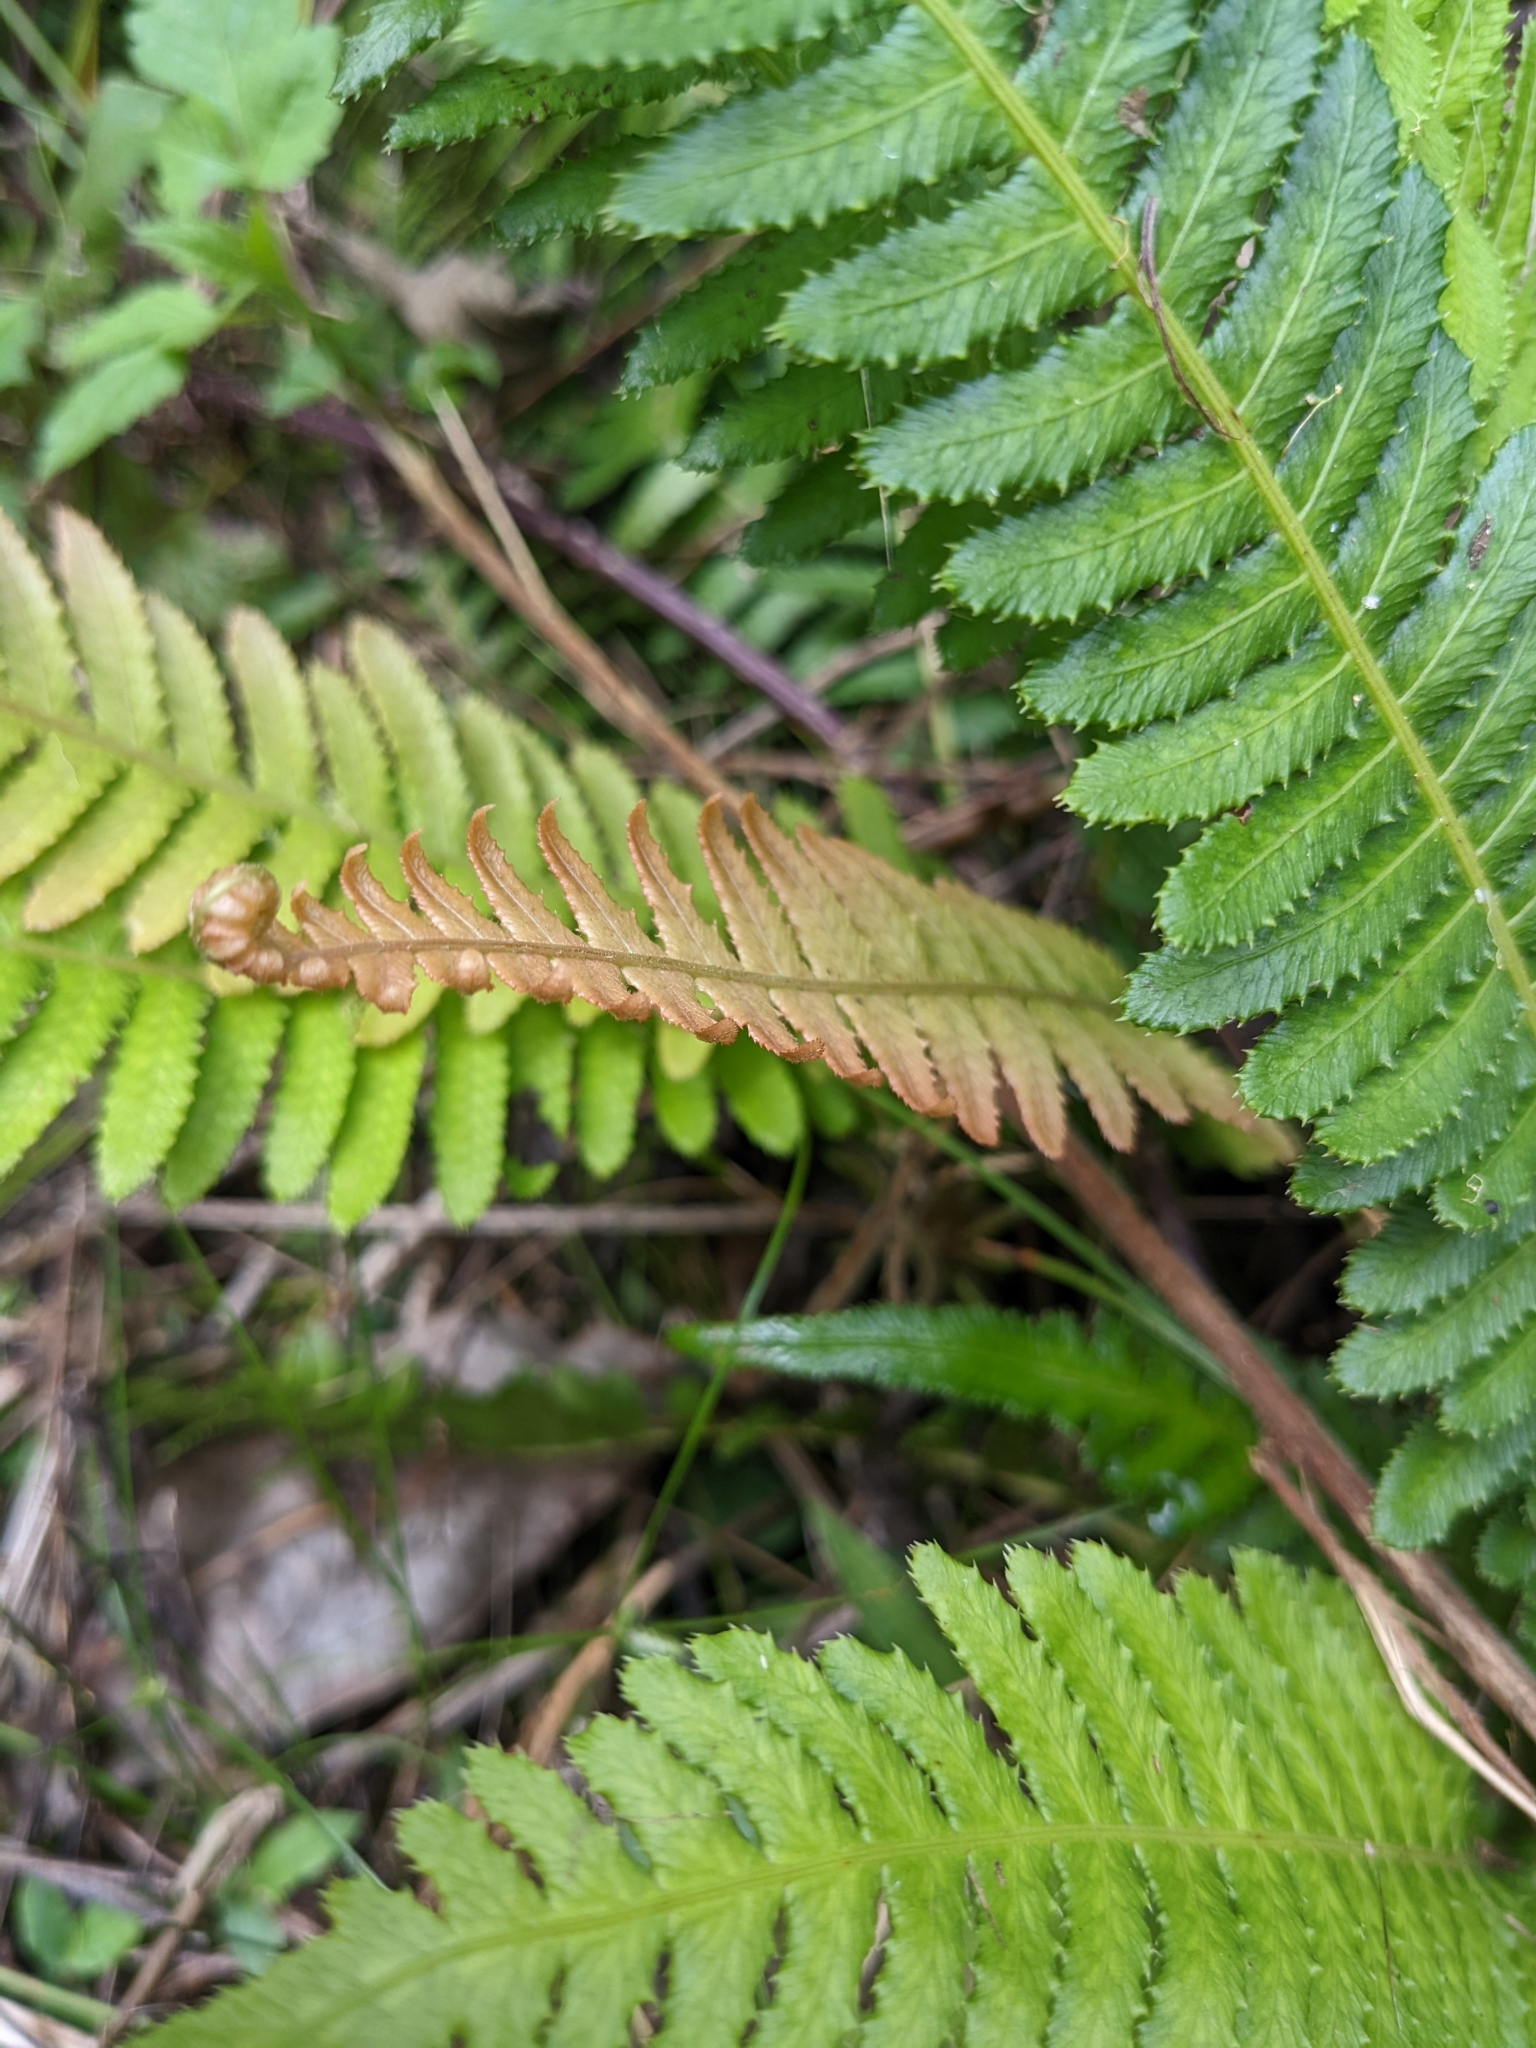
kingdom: Plantae
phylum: Tracheophyta
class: Polypodiopsida
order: Polypodiales
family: Blechnaceae
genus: Doodia
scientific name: Doodia aspera
